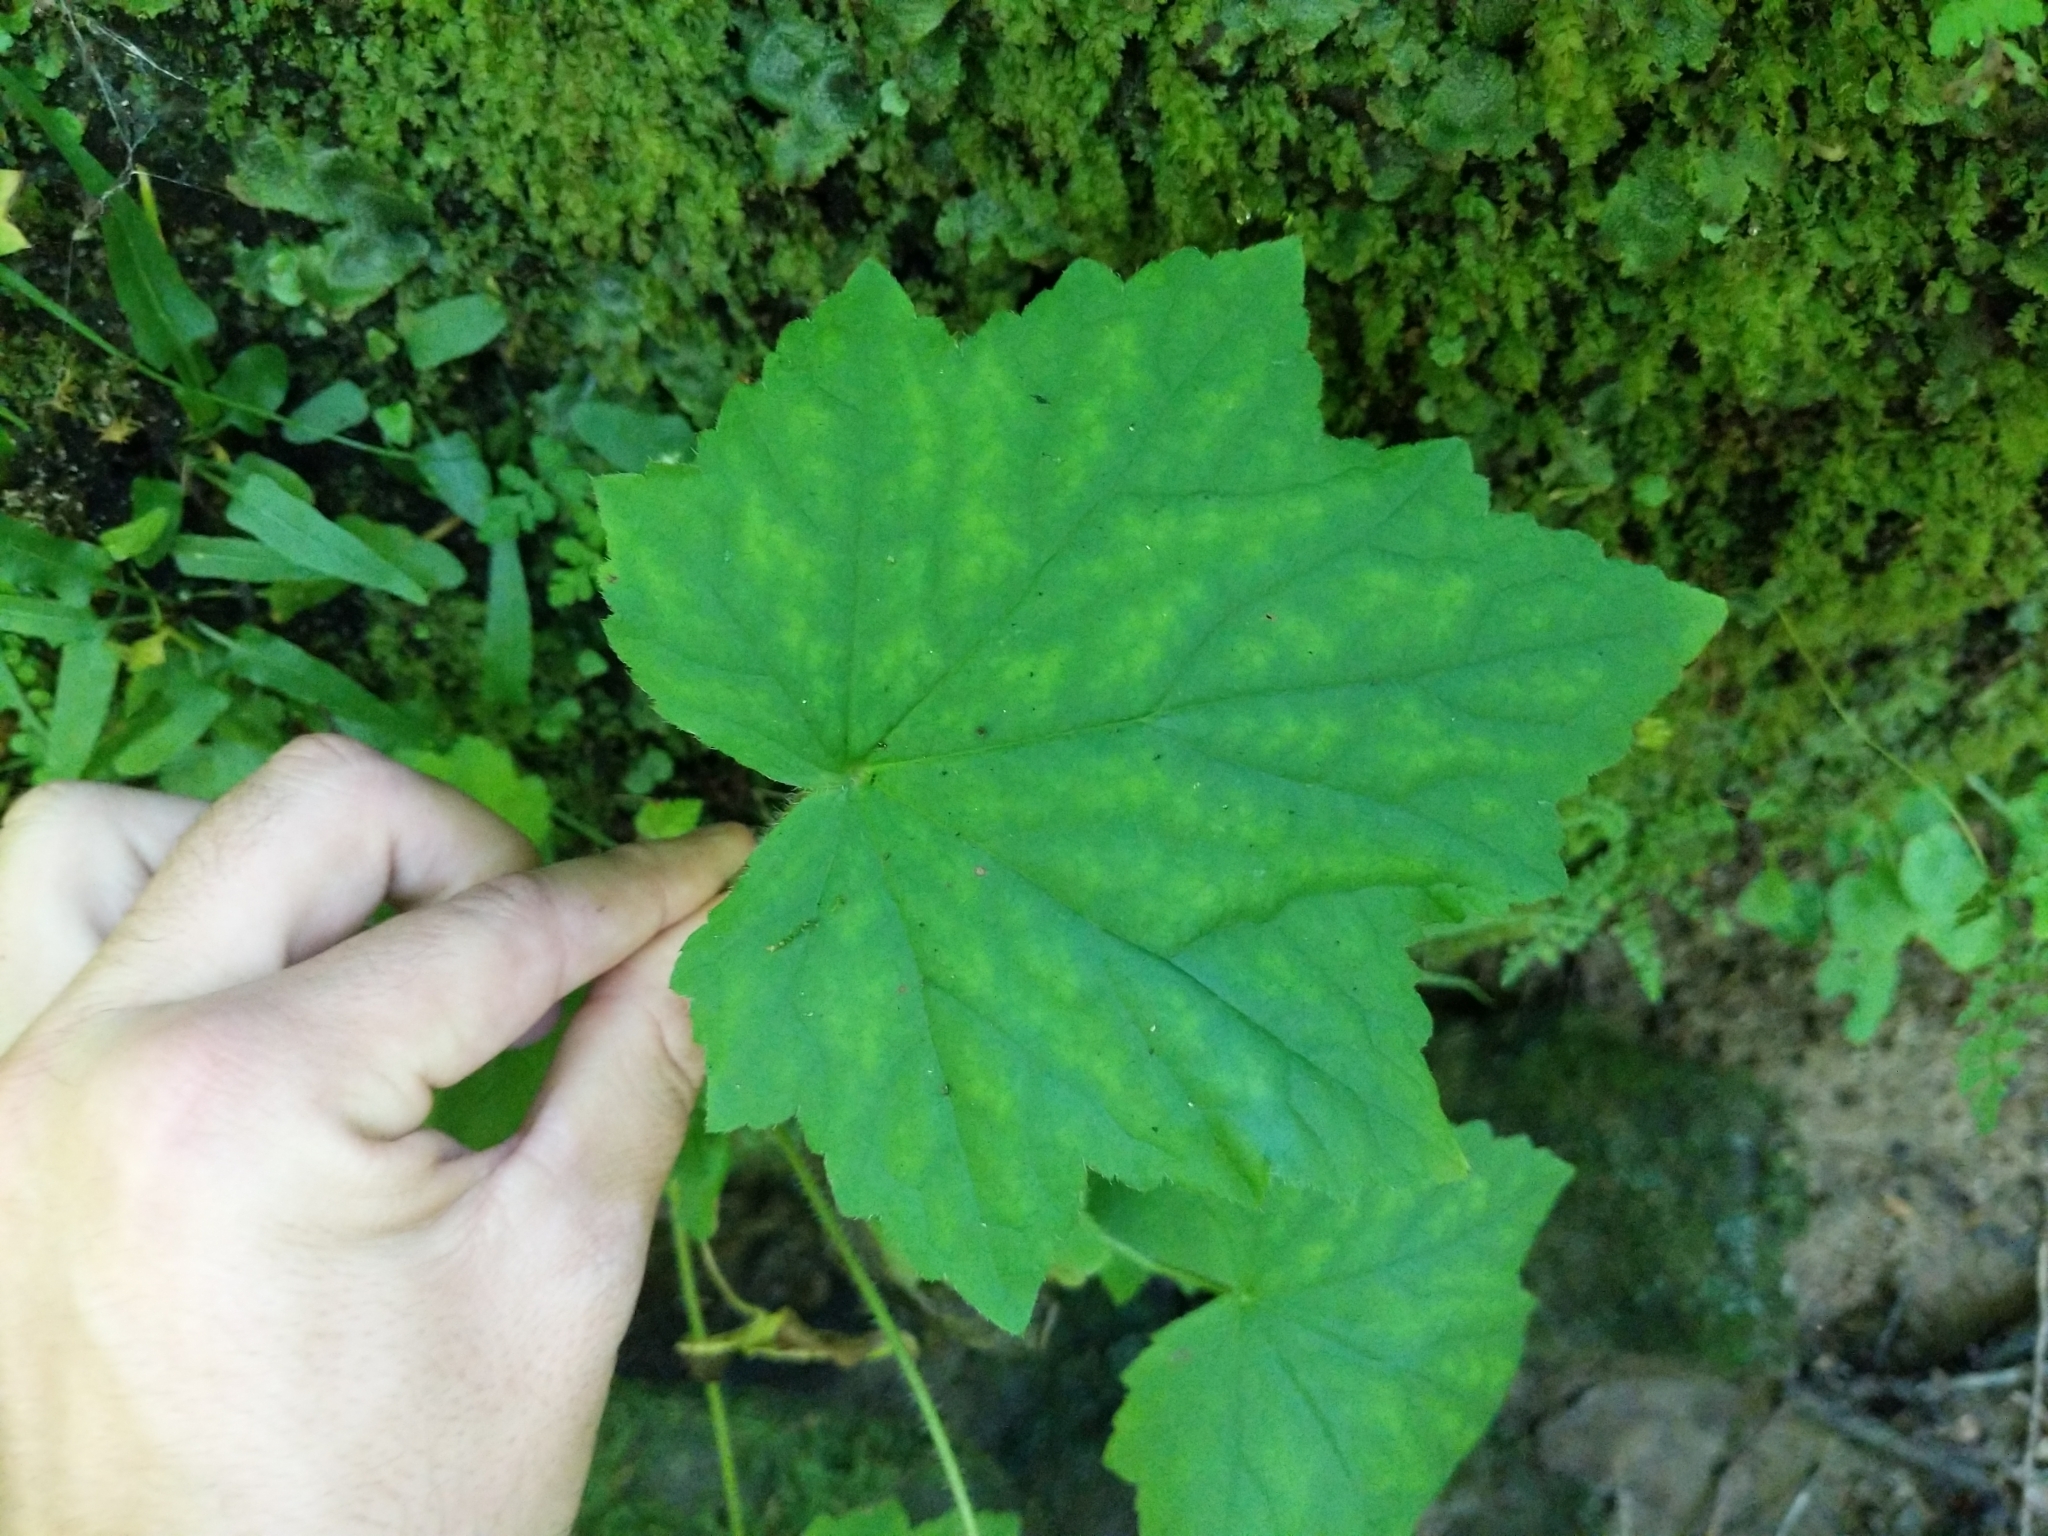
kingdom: Plantae
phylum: Tracheophyta
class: Magnoliopsida
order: Saxifragales
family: Saxifragaceae
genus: Tiarella
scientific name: Tiarella stolonifera
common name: Stoloniferous foamflower
